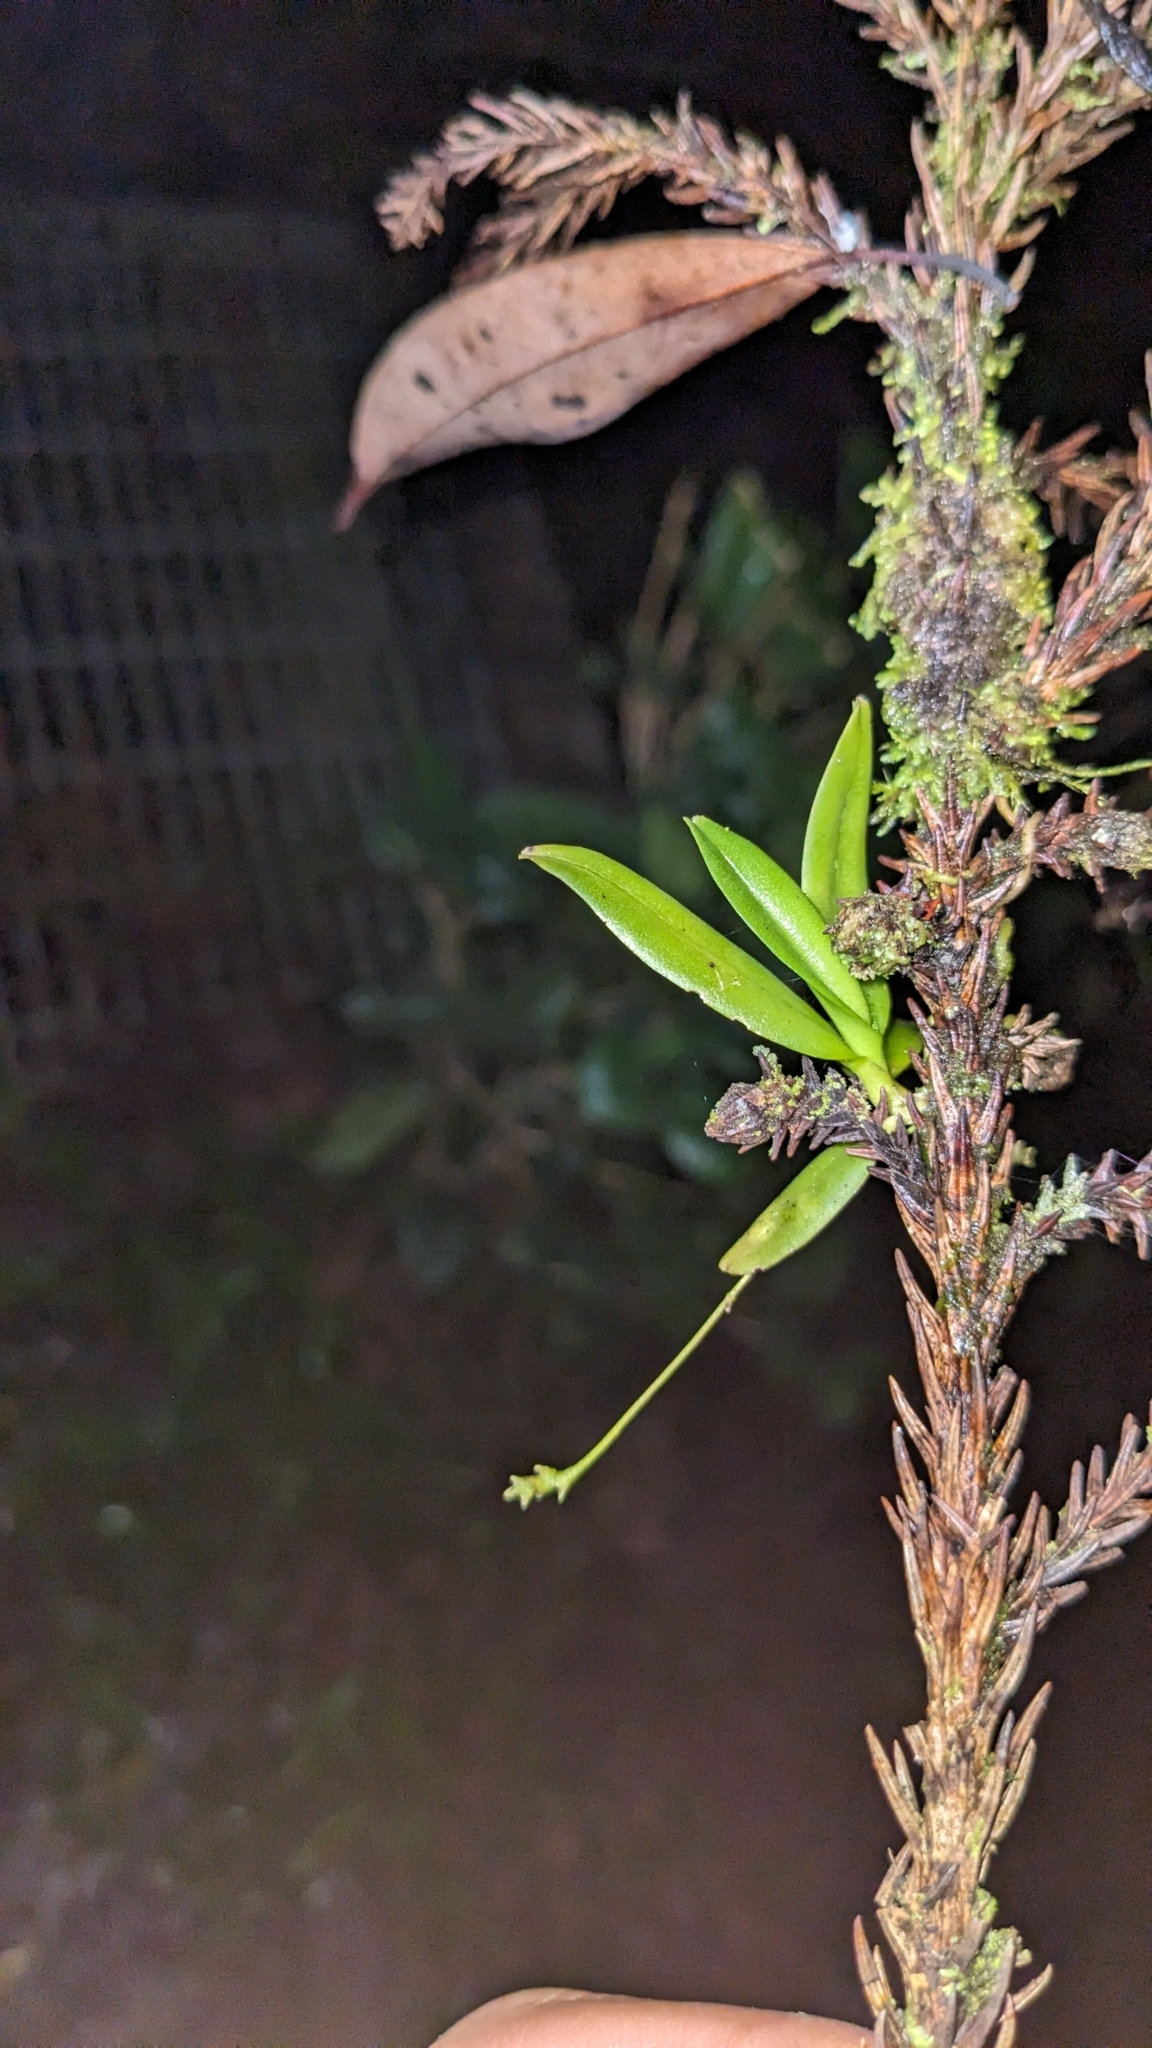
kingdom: Plantae
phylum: Tracheophyta
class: Liliopsida
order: Asparagales
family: Orchidaceae
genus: Thrixspermum
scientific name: Thrixspermum fantasticum
